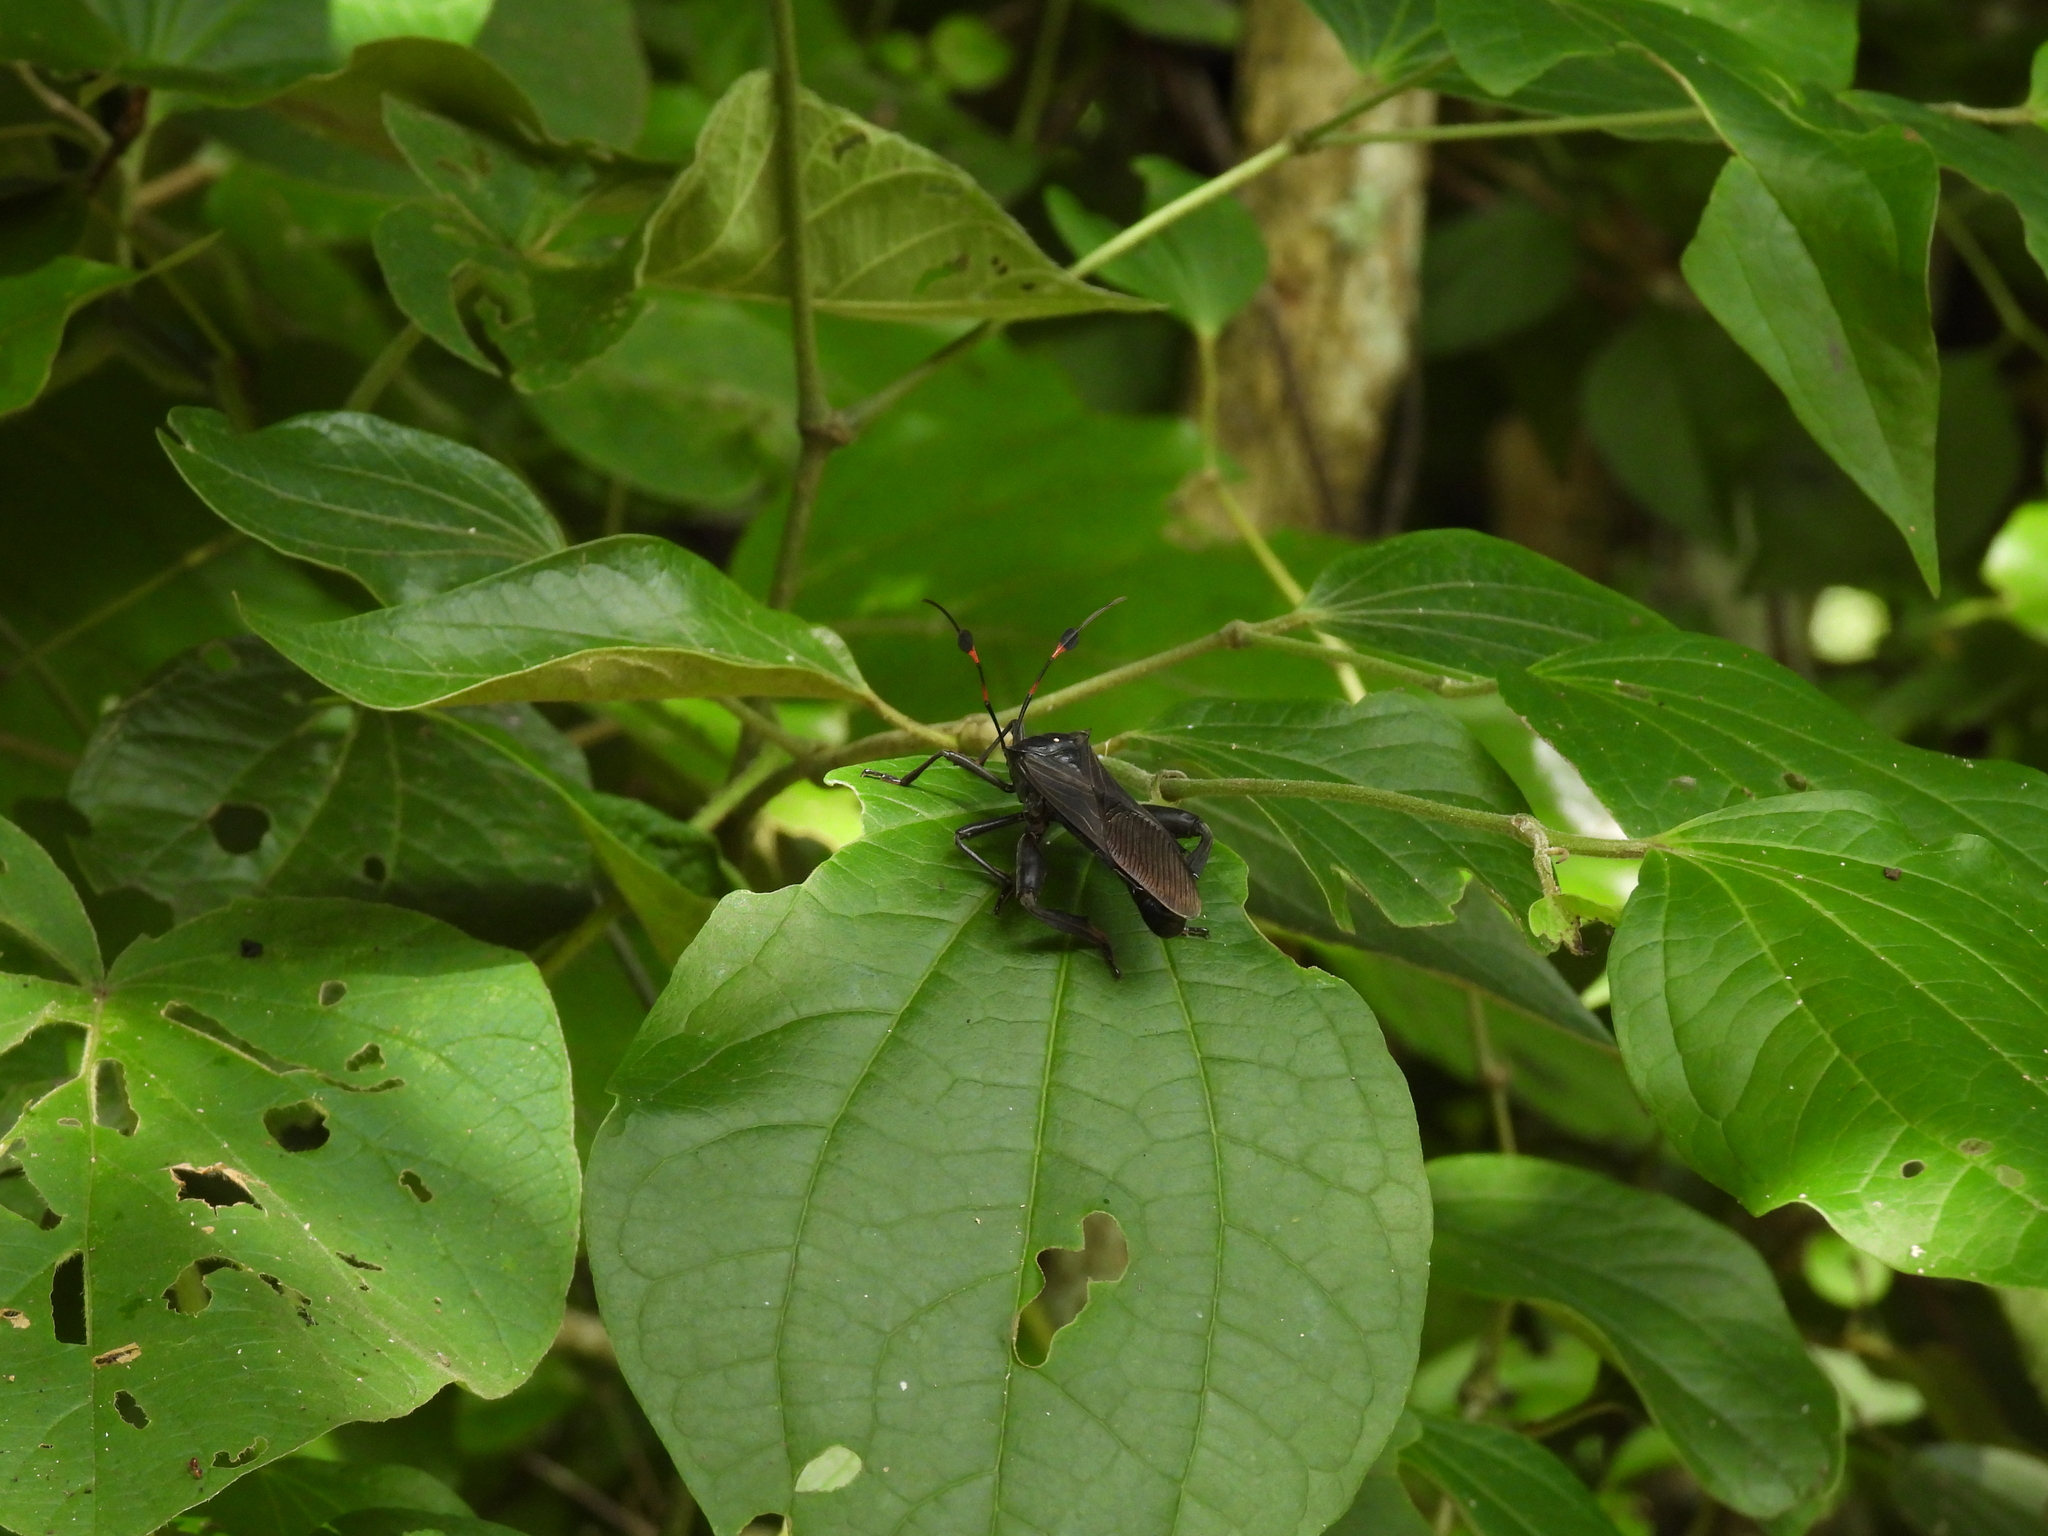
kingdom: Animalia
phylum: Arthropoda
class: Insecta
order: Hemiptera
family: Coreidae
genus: Thasus
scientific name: Thasus acutangulus
